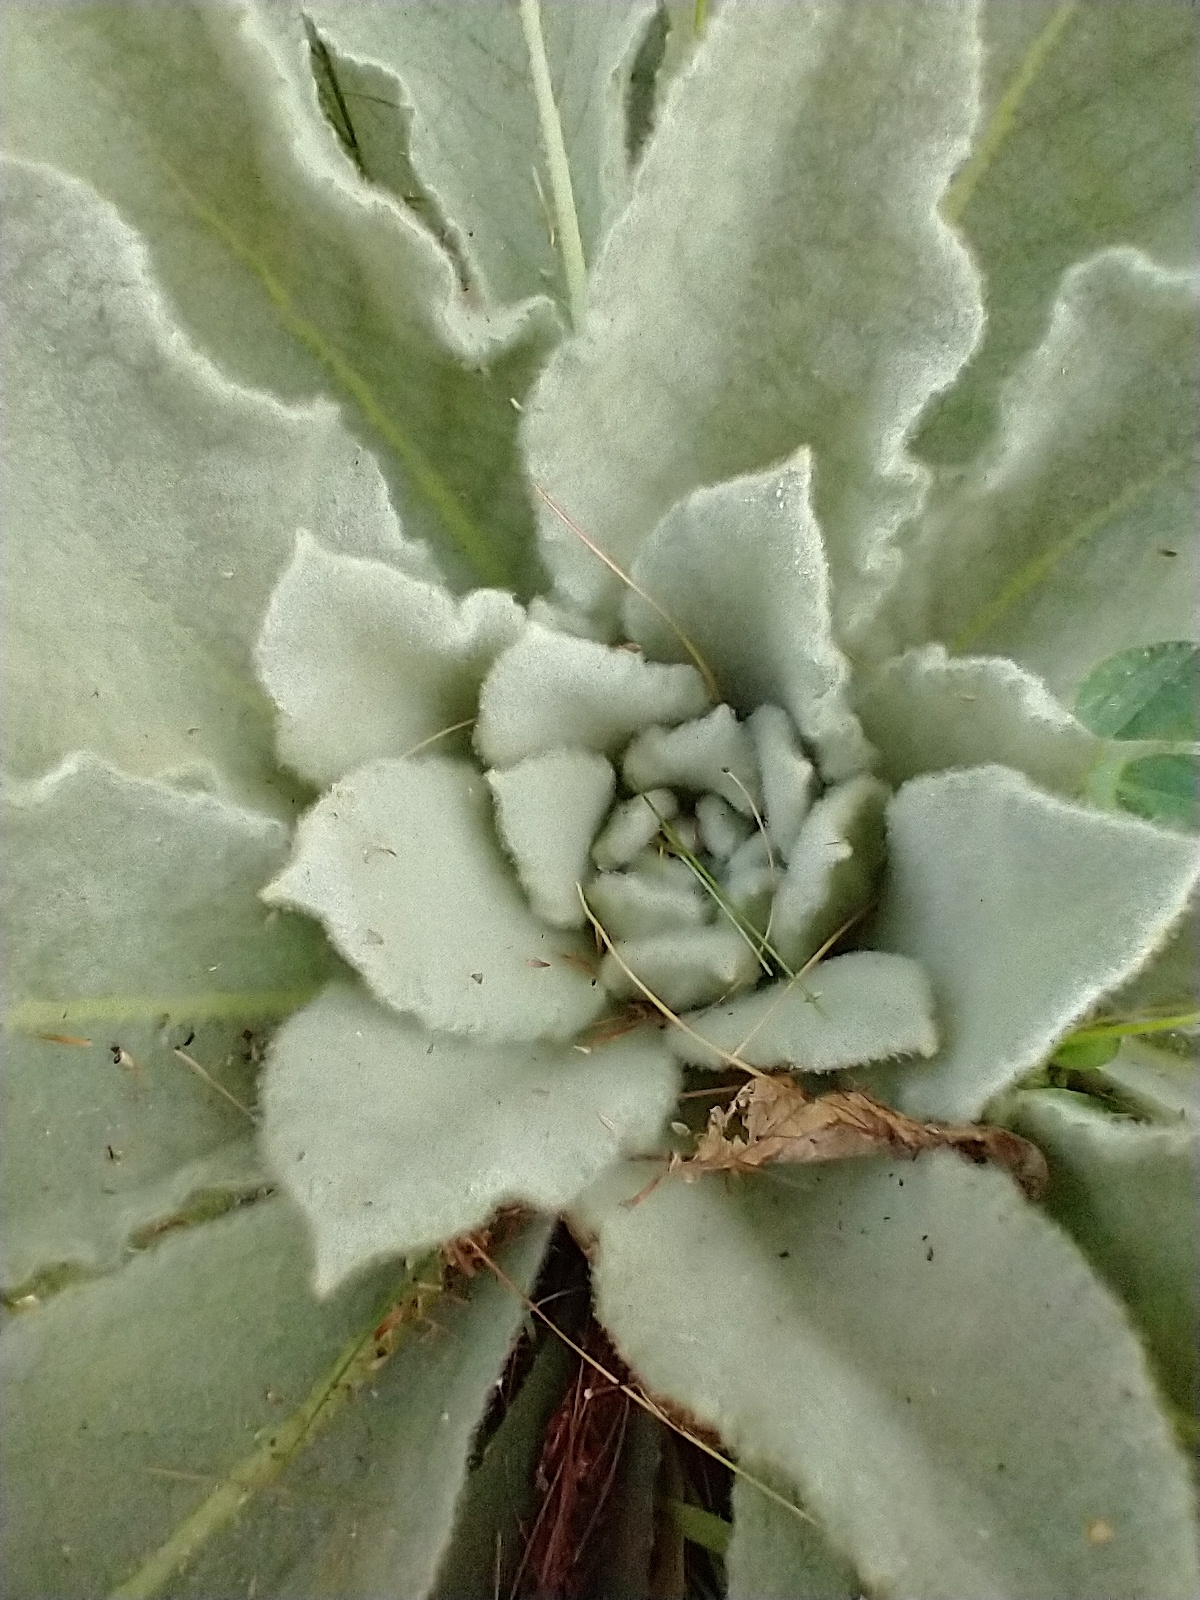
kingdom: Plantae
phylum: Tracheophyta
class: Magnoliopsida
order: Lamiales
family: Scrophulariaceae
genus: Verbascum
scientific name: Verbascum thapsus
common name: Common mullein
